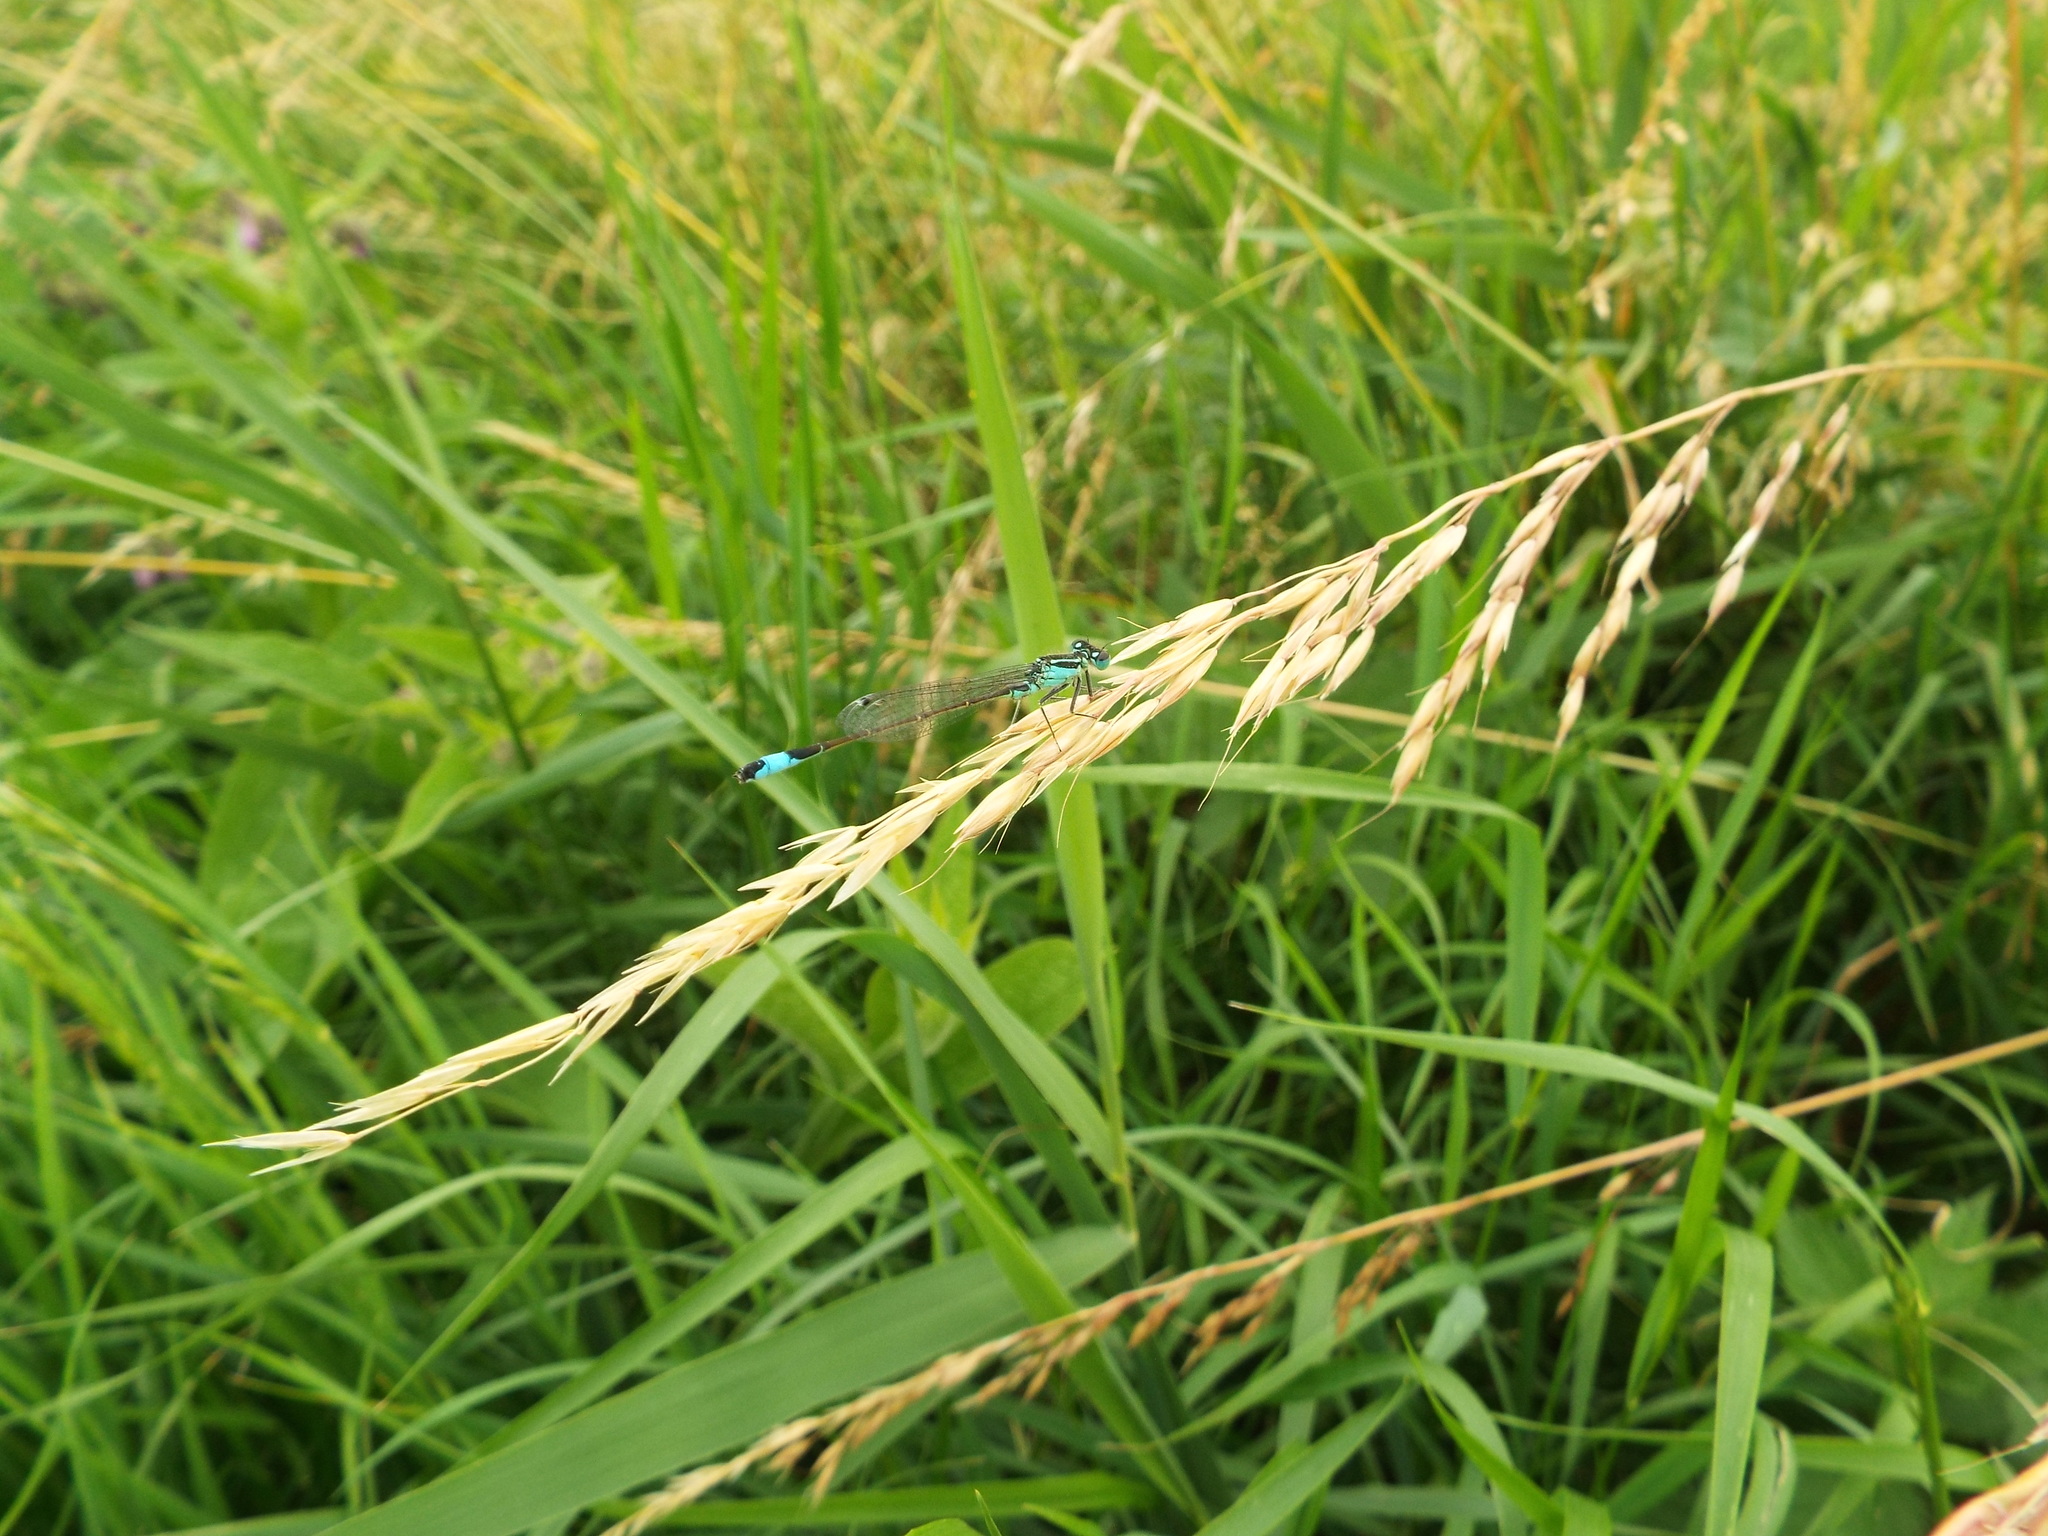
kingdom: Animalia
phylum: Arthropoda
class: Insecta
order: Odonata
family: Coenagrionidae
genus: Ischnura
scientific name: Ischnura elegans
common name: Blue-tailed damselfly
